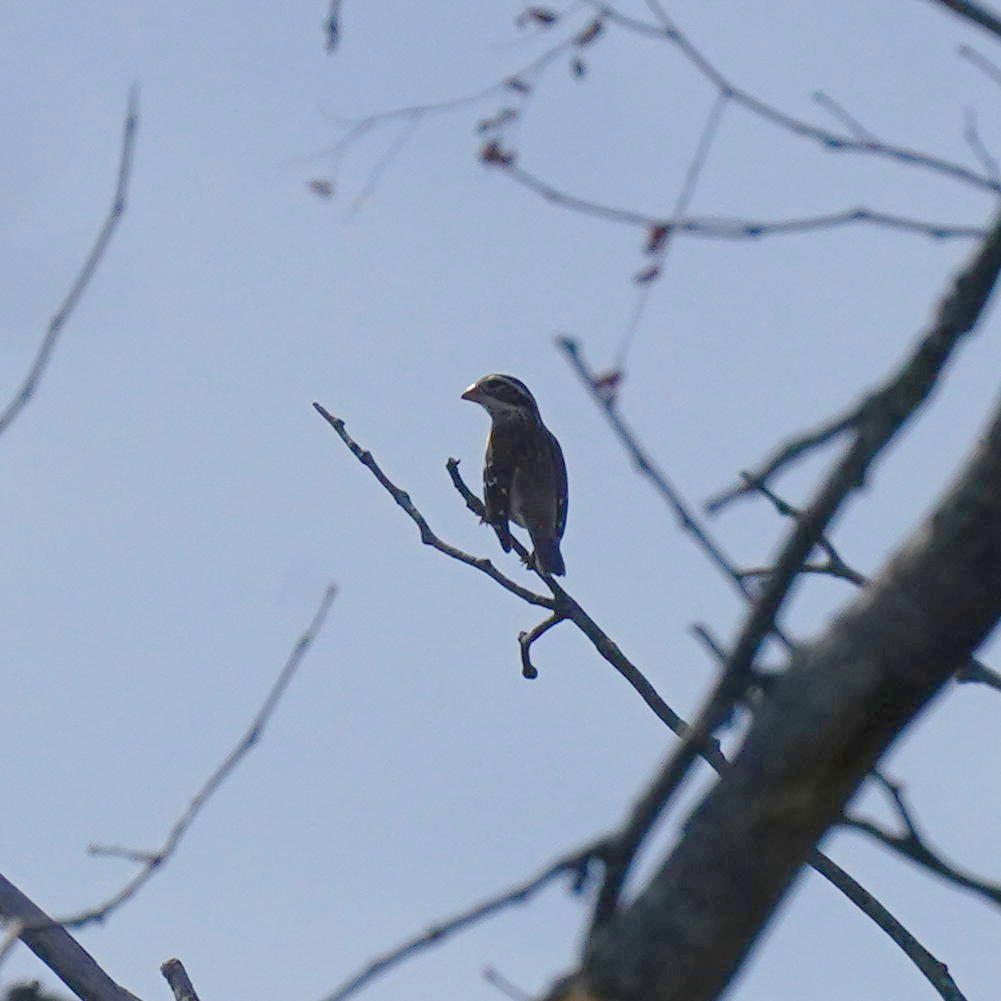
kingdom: Animalia
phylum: Chordata
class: Aves
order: Passeriformes
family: Cardinalidae
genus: Pheucticus
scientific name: Pheucticus ludovicianus
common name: Rose-breasted grosbeak
